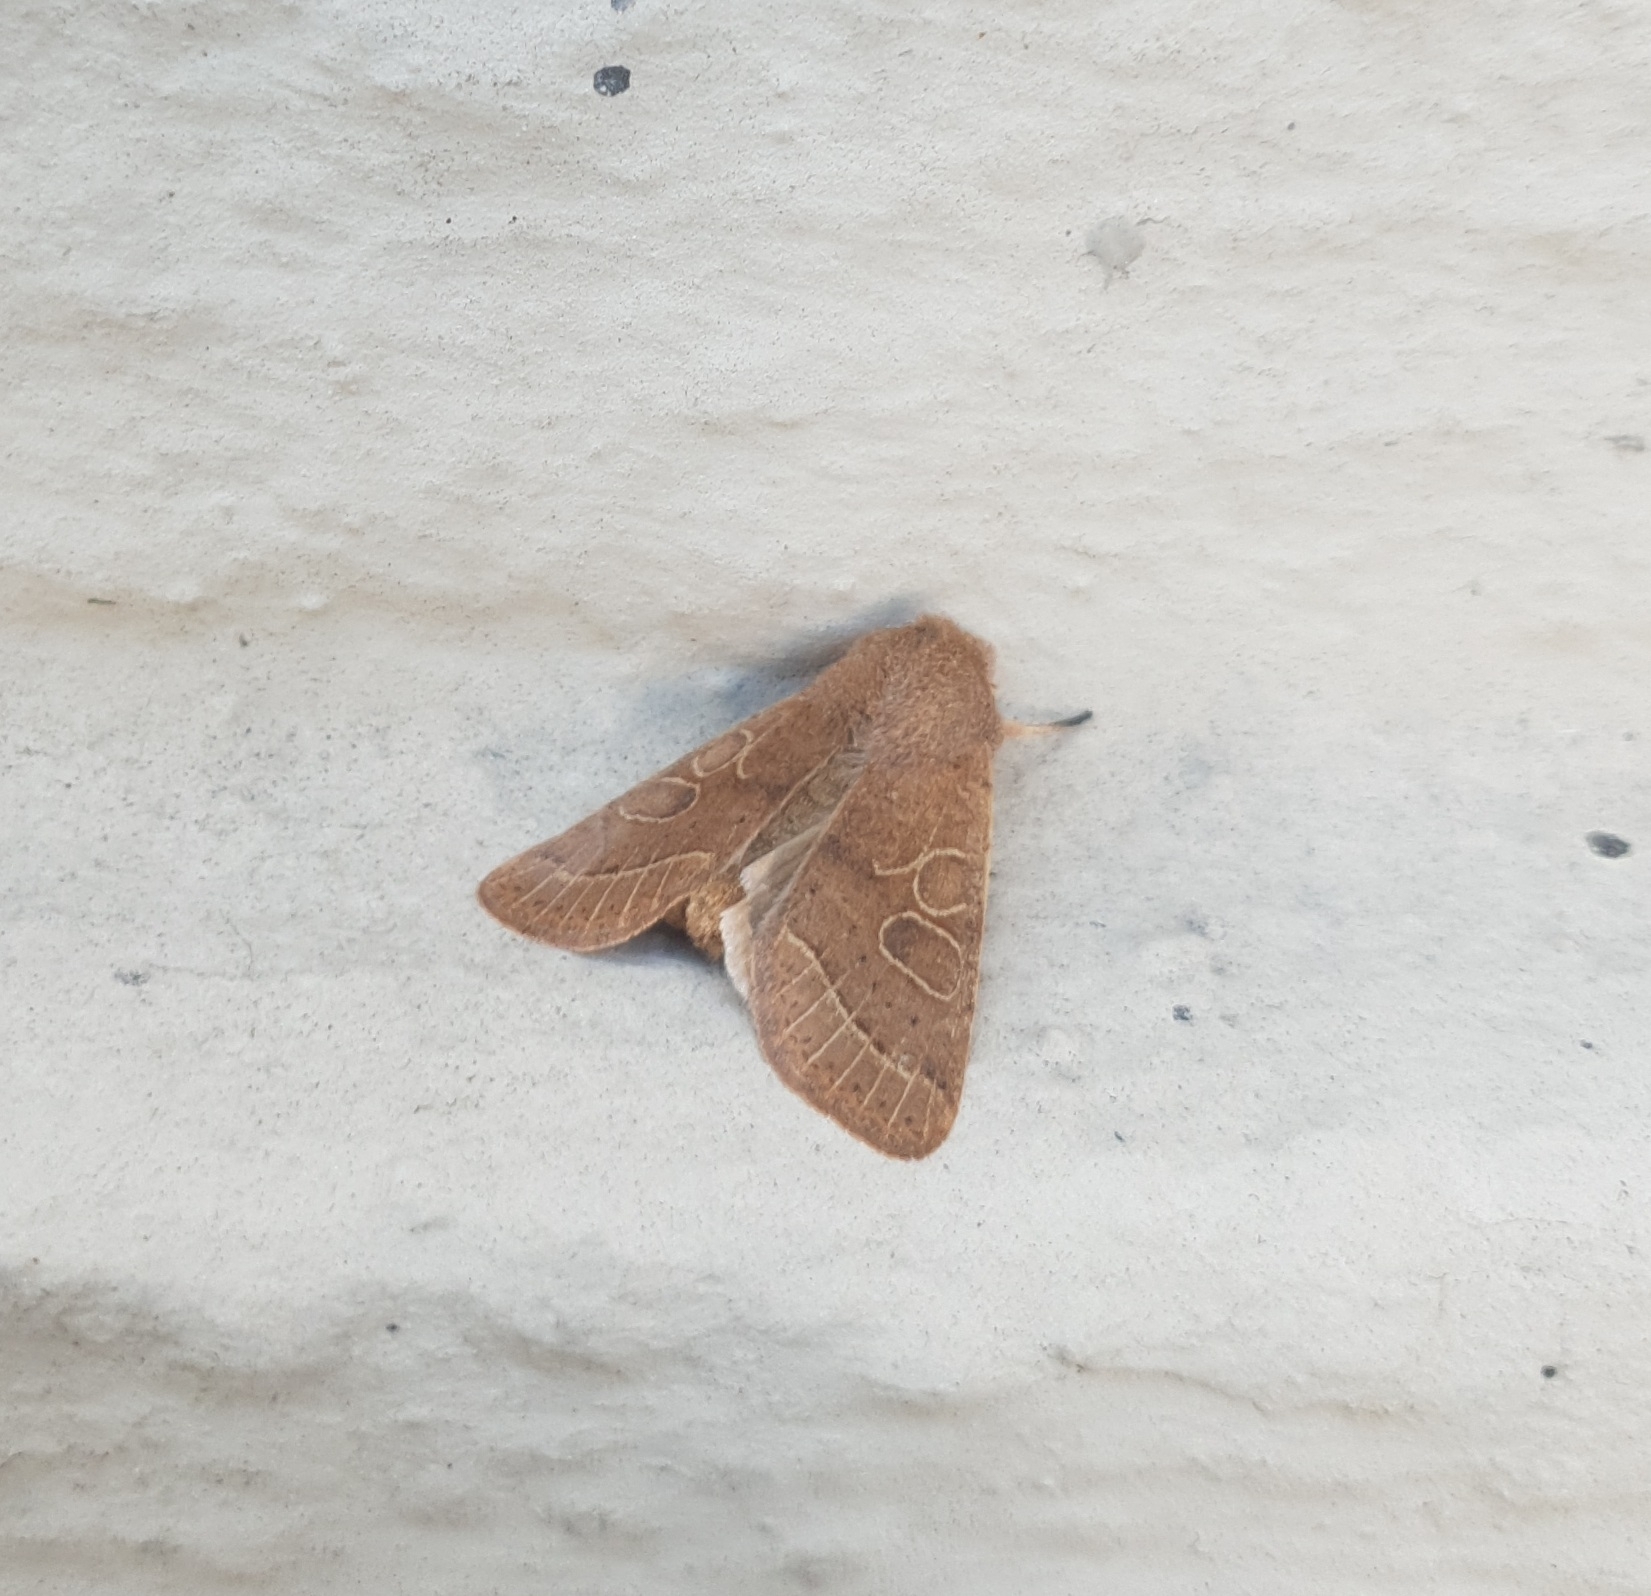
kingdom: Animalia
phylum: Arthropoda
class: Insecta
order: Lepidoptera
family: Noctuidae
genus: Orthosia
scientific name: Orthosia cerasi
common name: Common quaker
